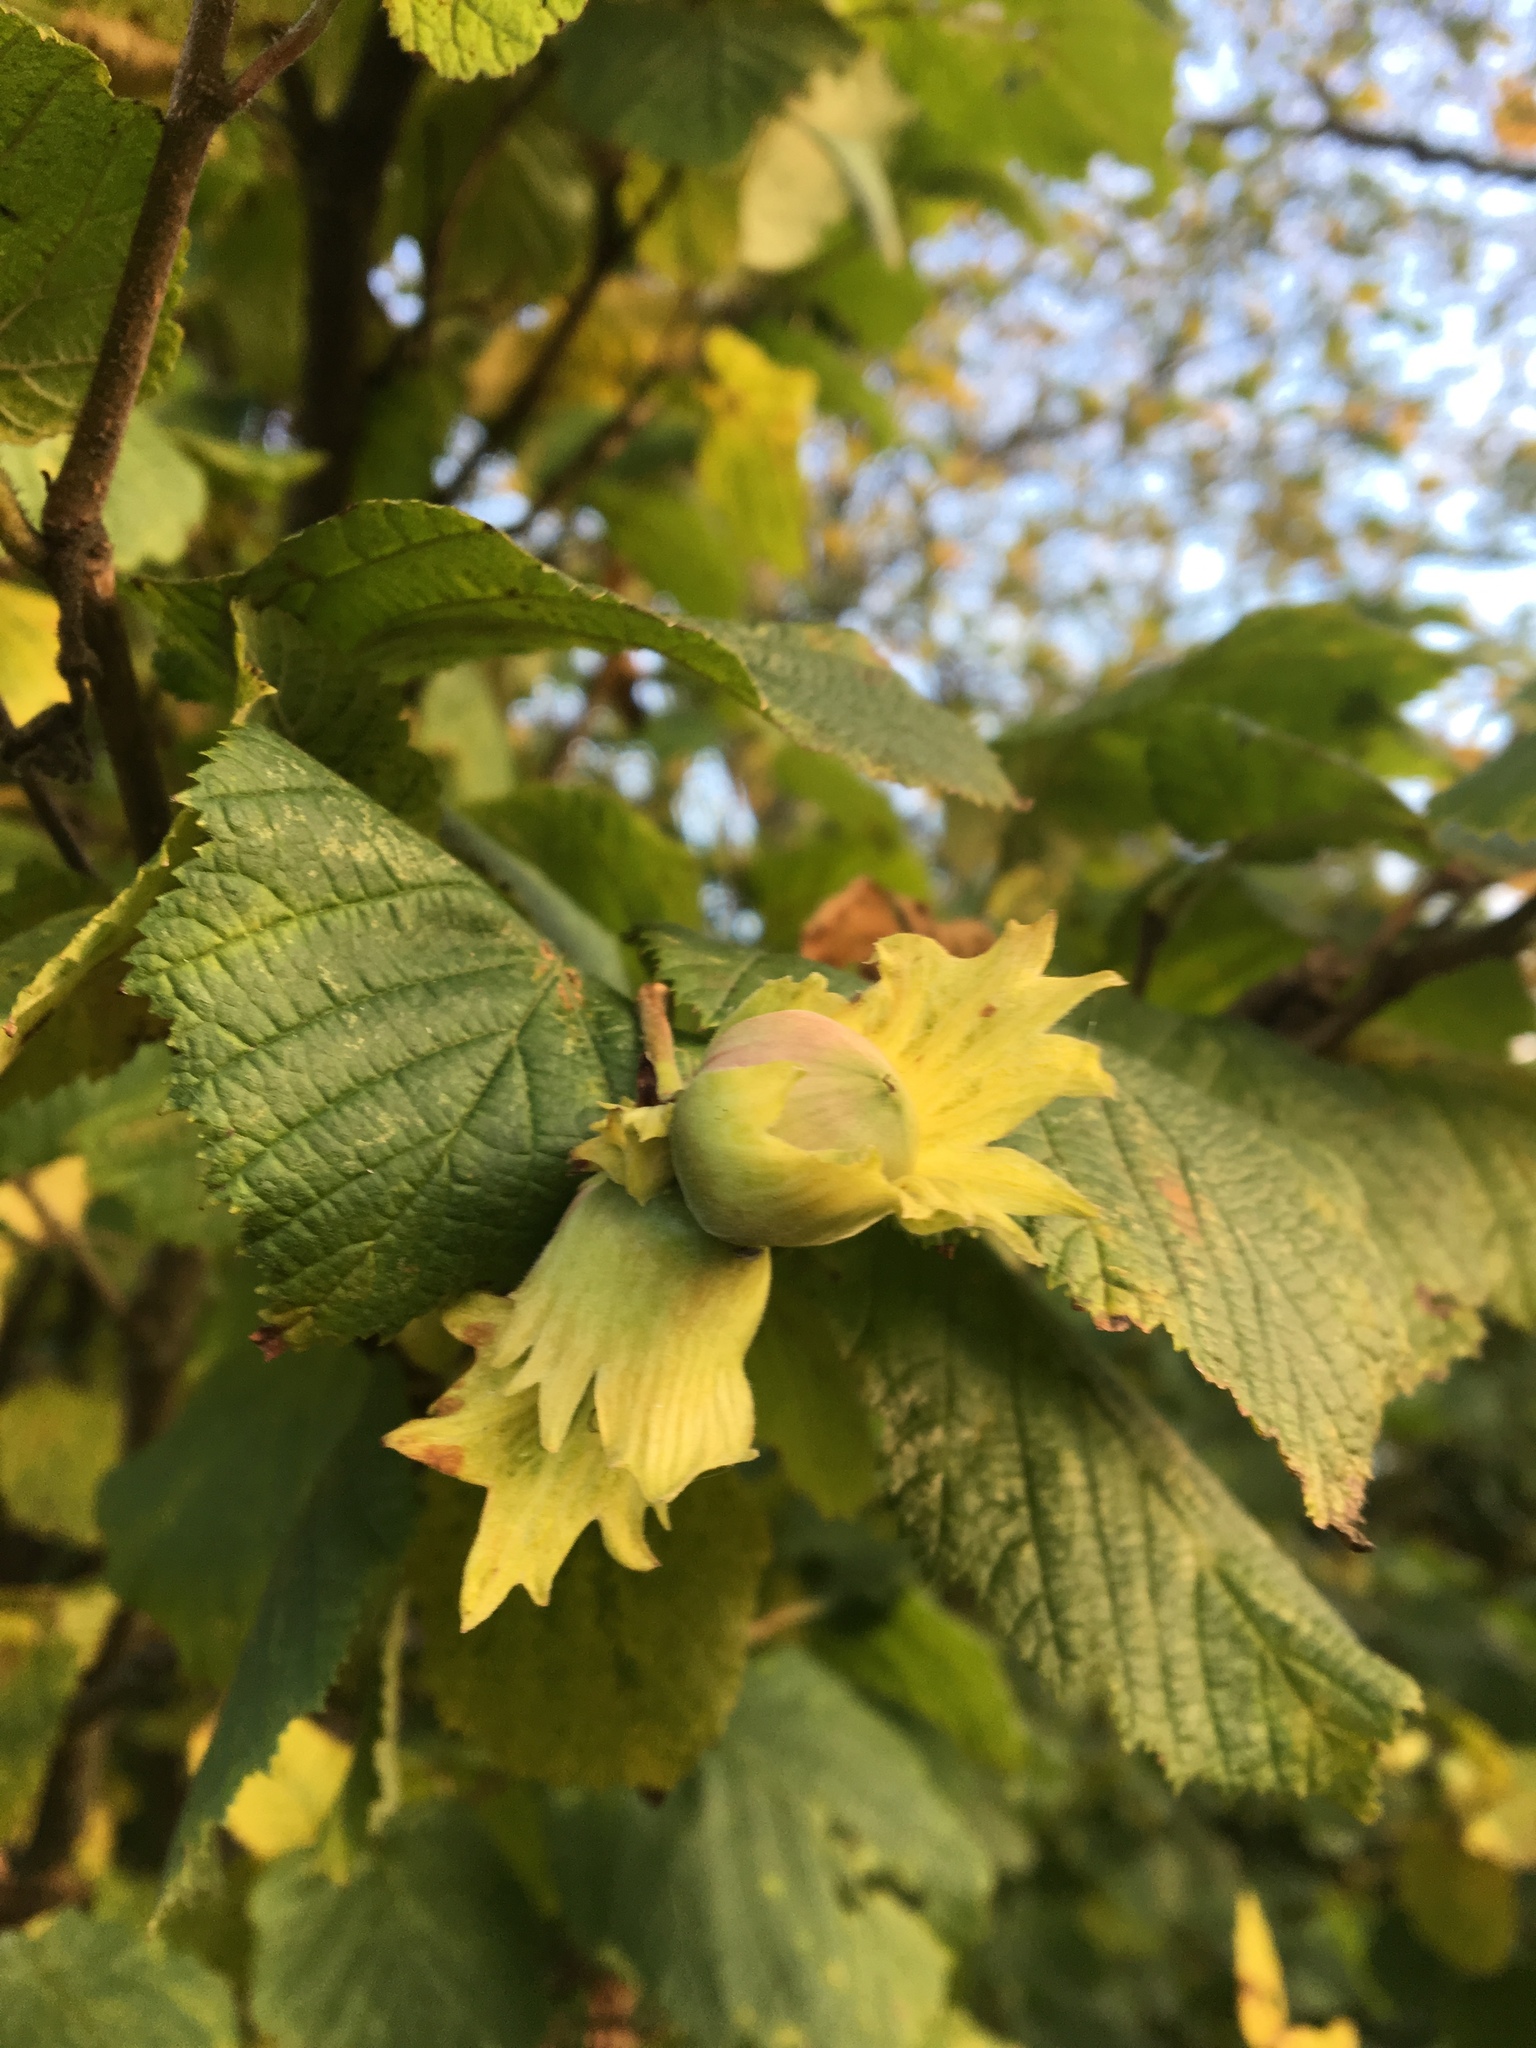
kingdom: Plantae
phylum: Tracheophyta
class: Magnoliopsida
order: Fagales
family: Betulaceae
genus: Corylus
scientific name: Corylus avellana
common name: European hazel
